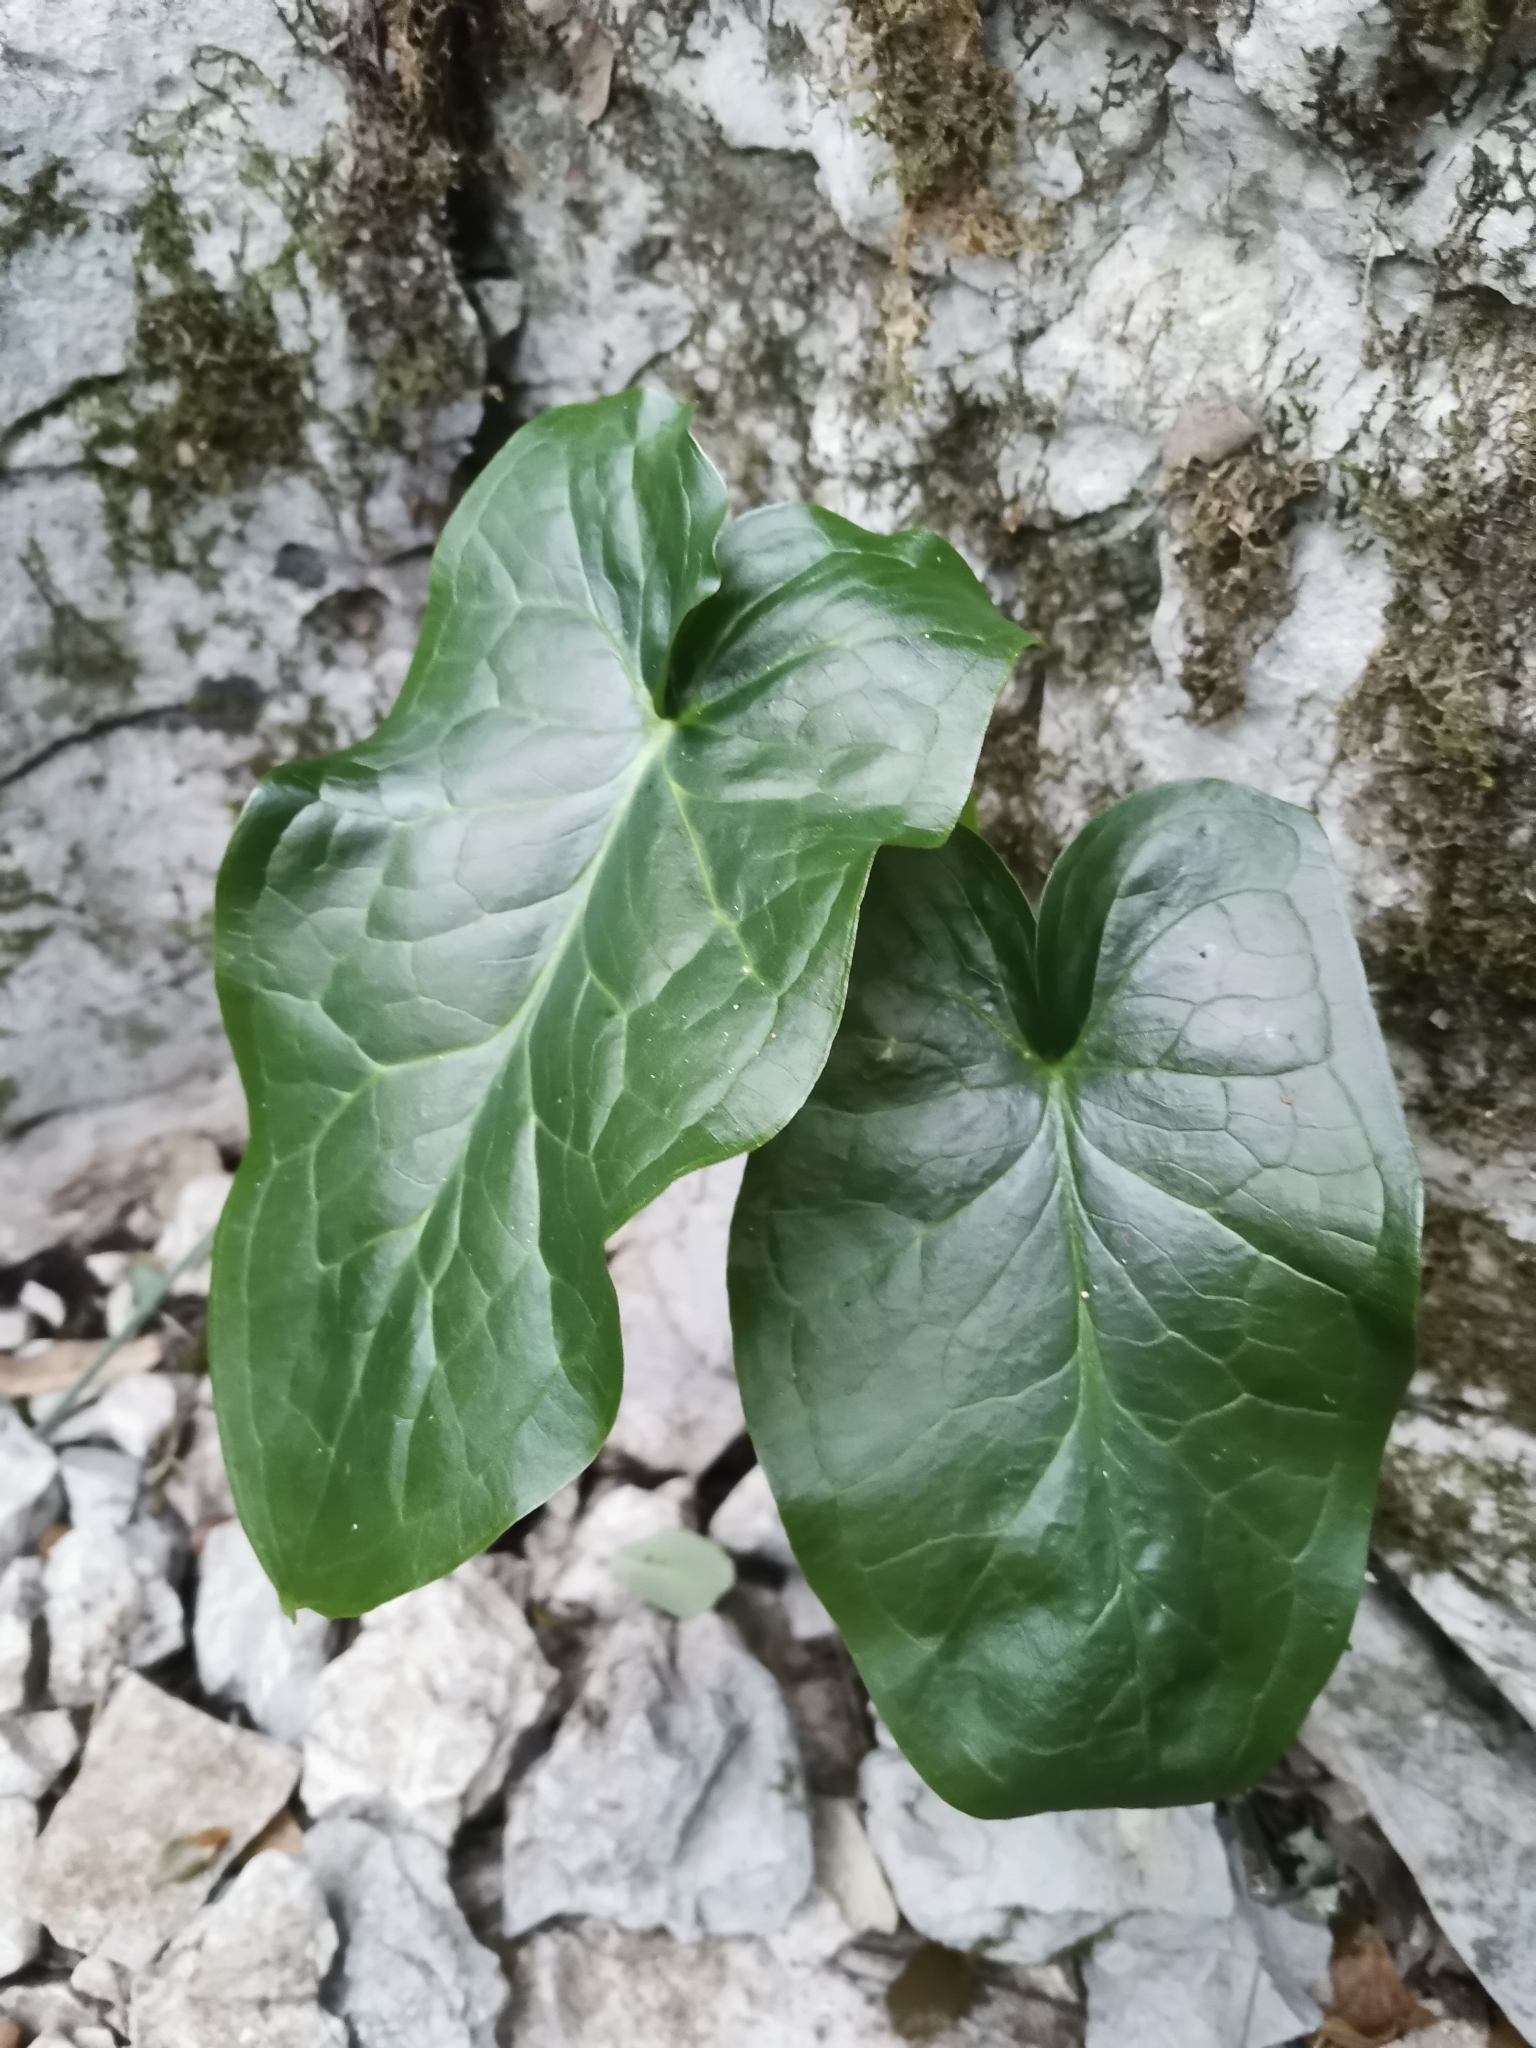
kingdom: Plantae
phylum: Tracheophyta
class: Liliopsida
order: Alismatales
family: Araceae
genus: Arum
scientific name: Arum italicum
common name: Italian lords-and-ladies
